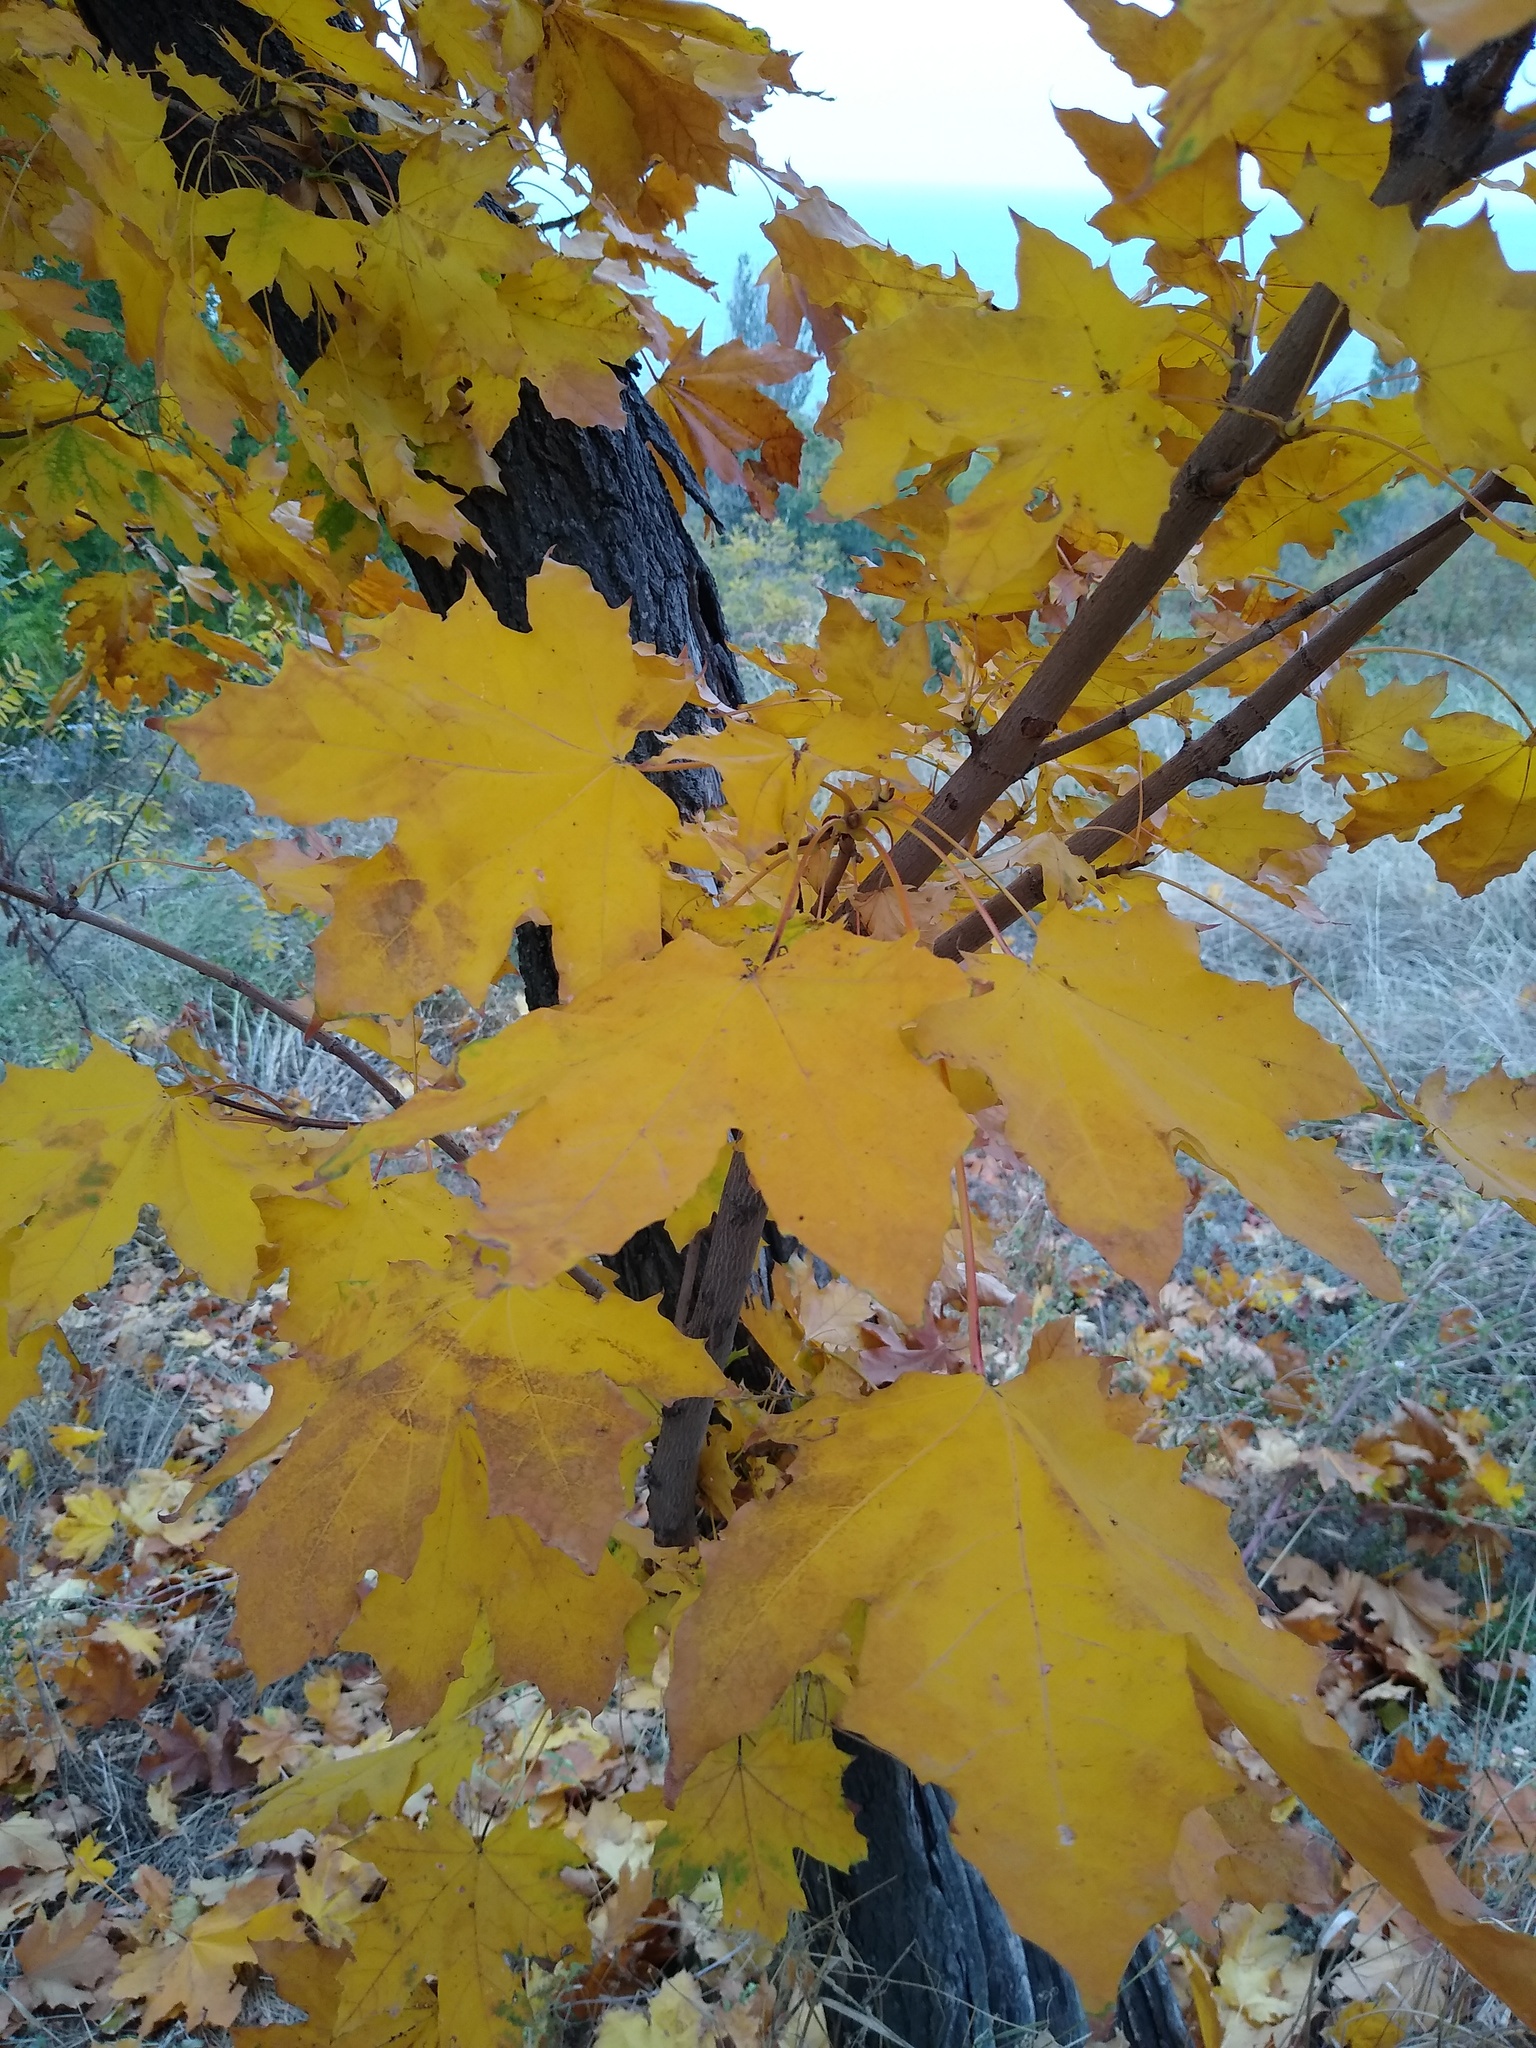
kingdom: Plantae
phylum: Tracheophyta
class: Magnoliopsida
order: Sapindales
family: Sapindaceae
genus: Acer
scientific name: Acer platanoides
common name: Norway maple
